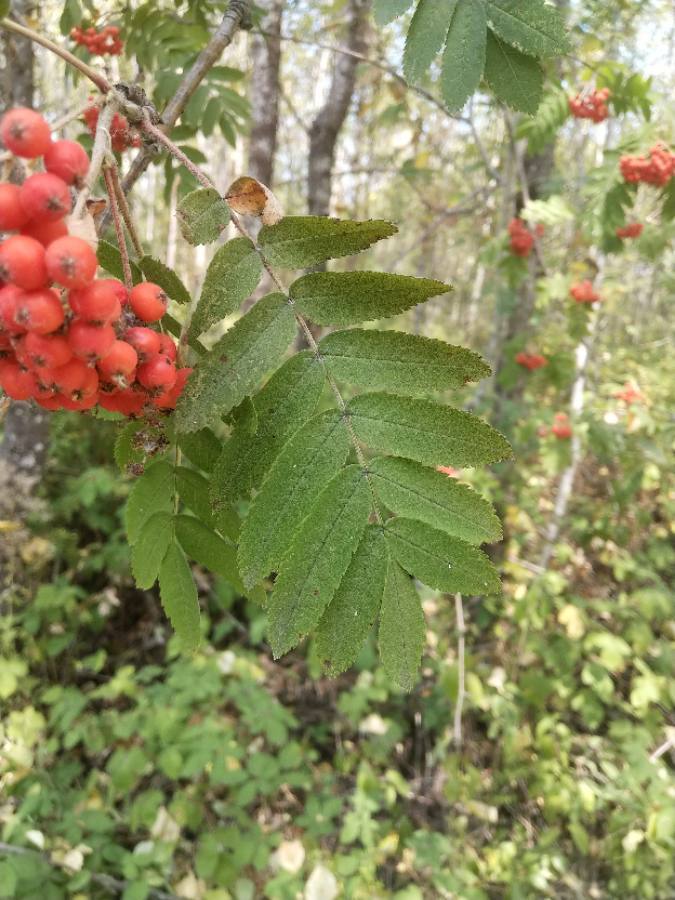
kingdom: Plantae
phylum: Tracheophyta
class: Magnoliopsida
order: Rosales
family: Rosaceae
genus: Sorbus
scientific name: Sorbus aucuparia
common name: Rowan
